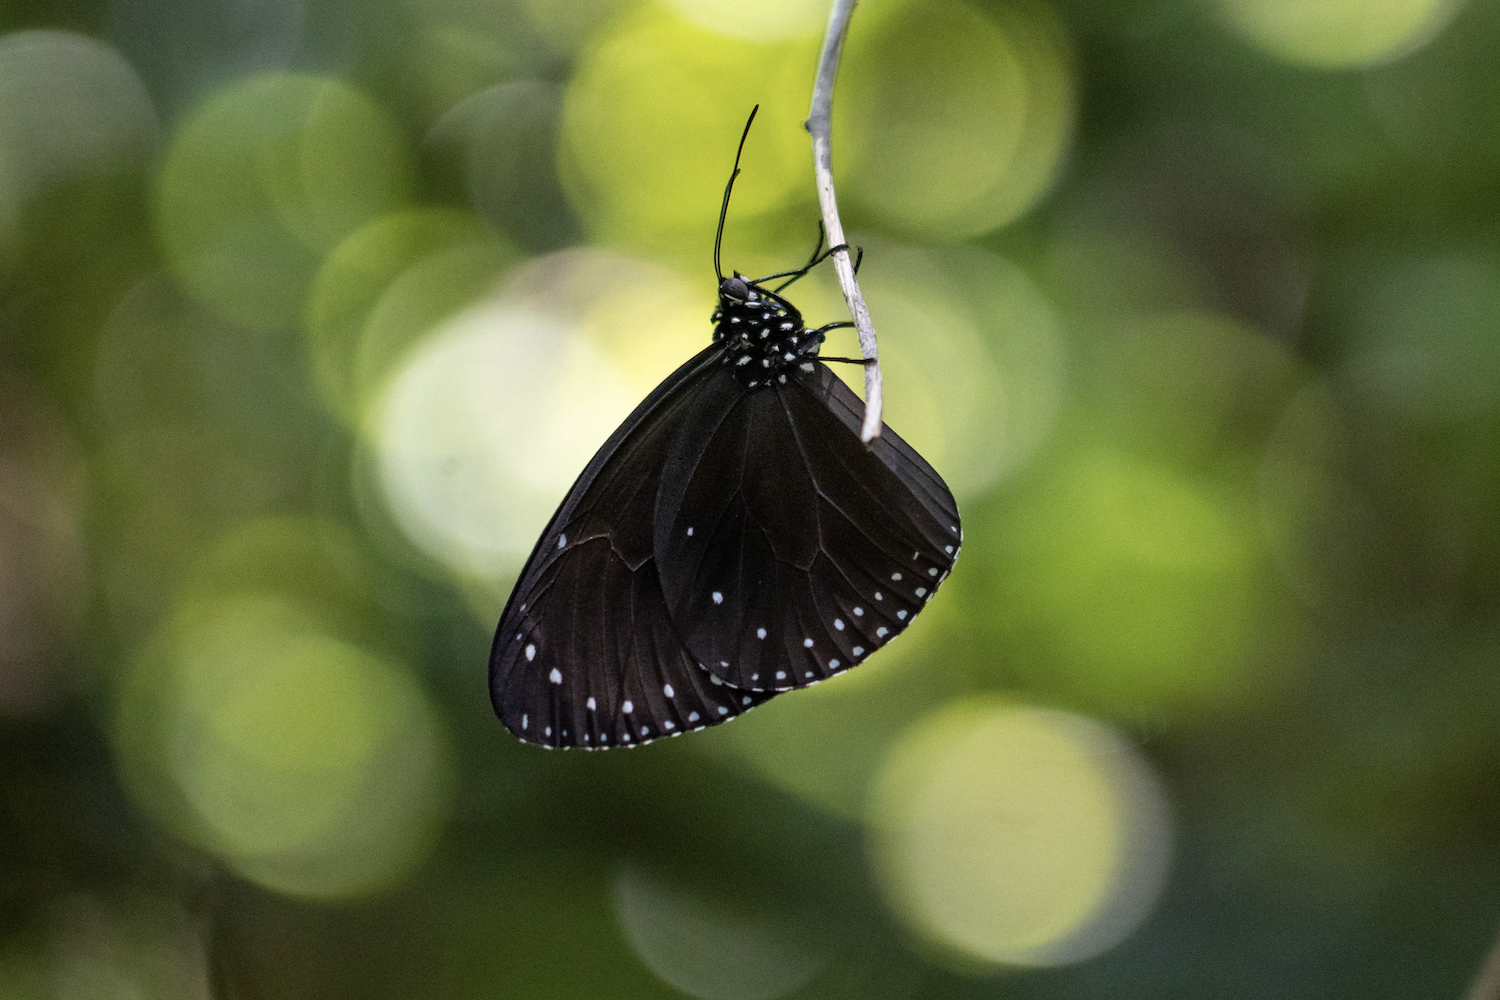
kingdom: Animalia
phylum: Arthropoda
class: Insecta
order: Lepidoptera
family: Nymphalidae
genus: Euploea
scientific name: Euploea tulliolus
